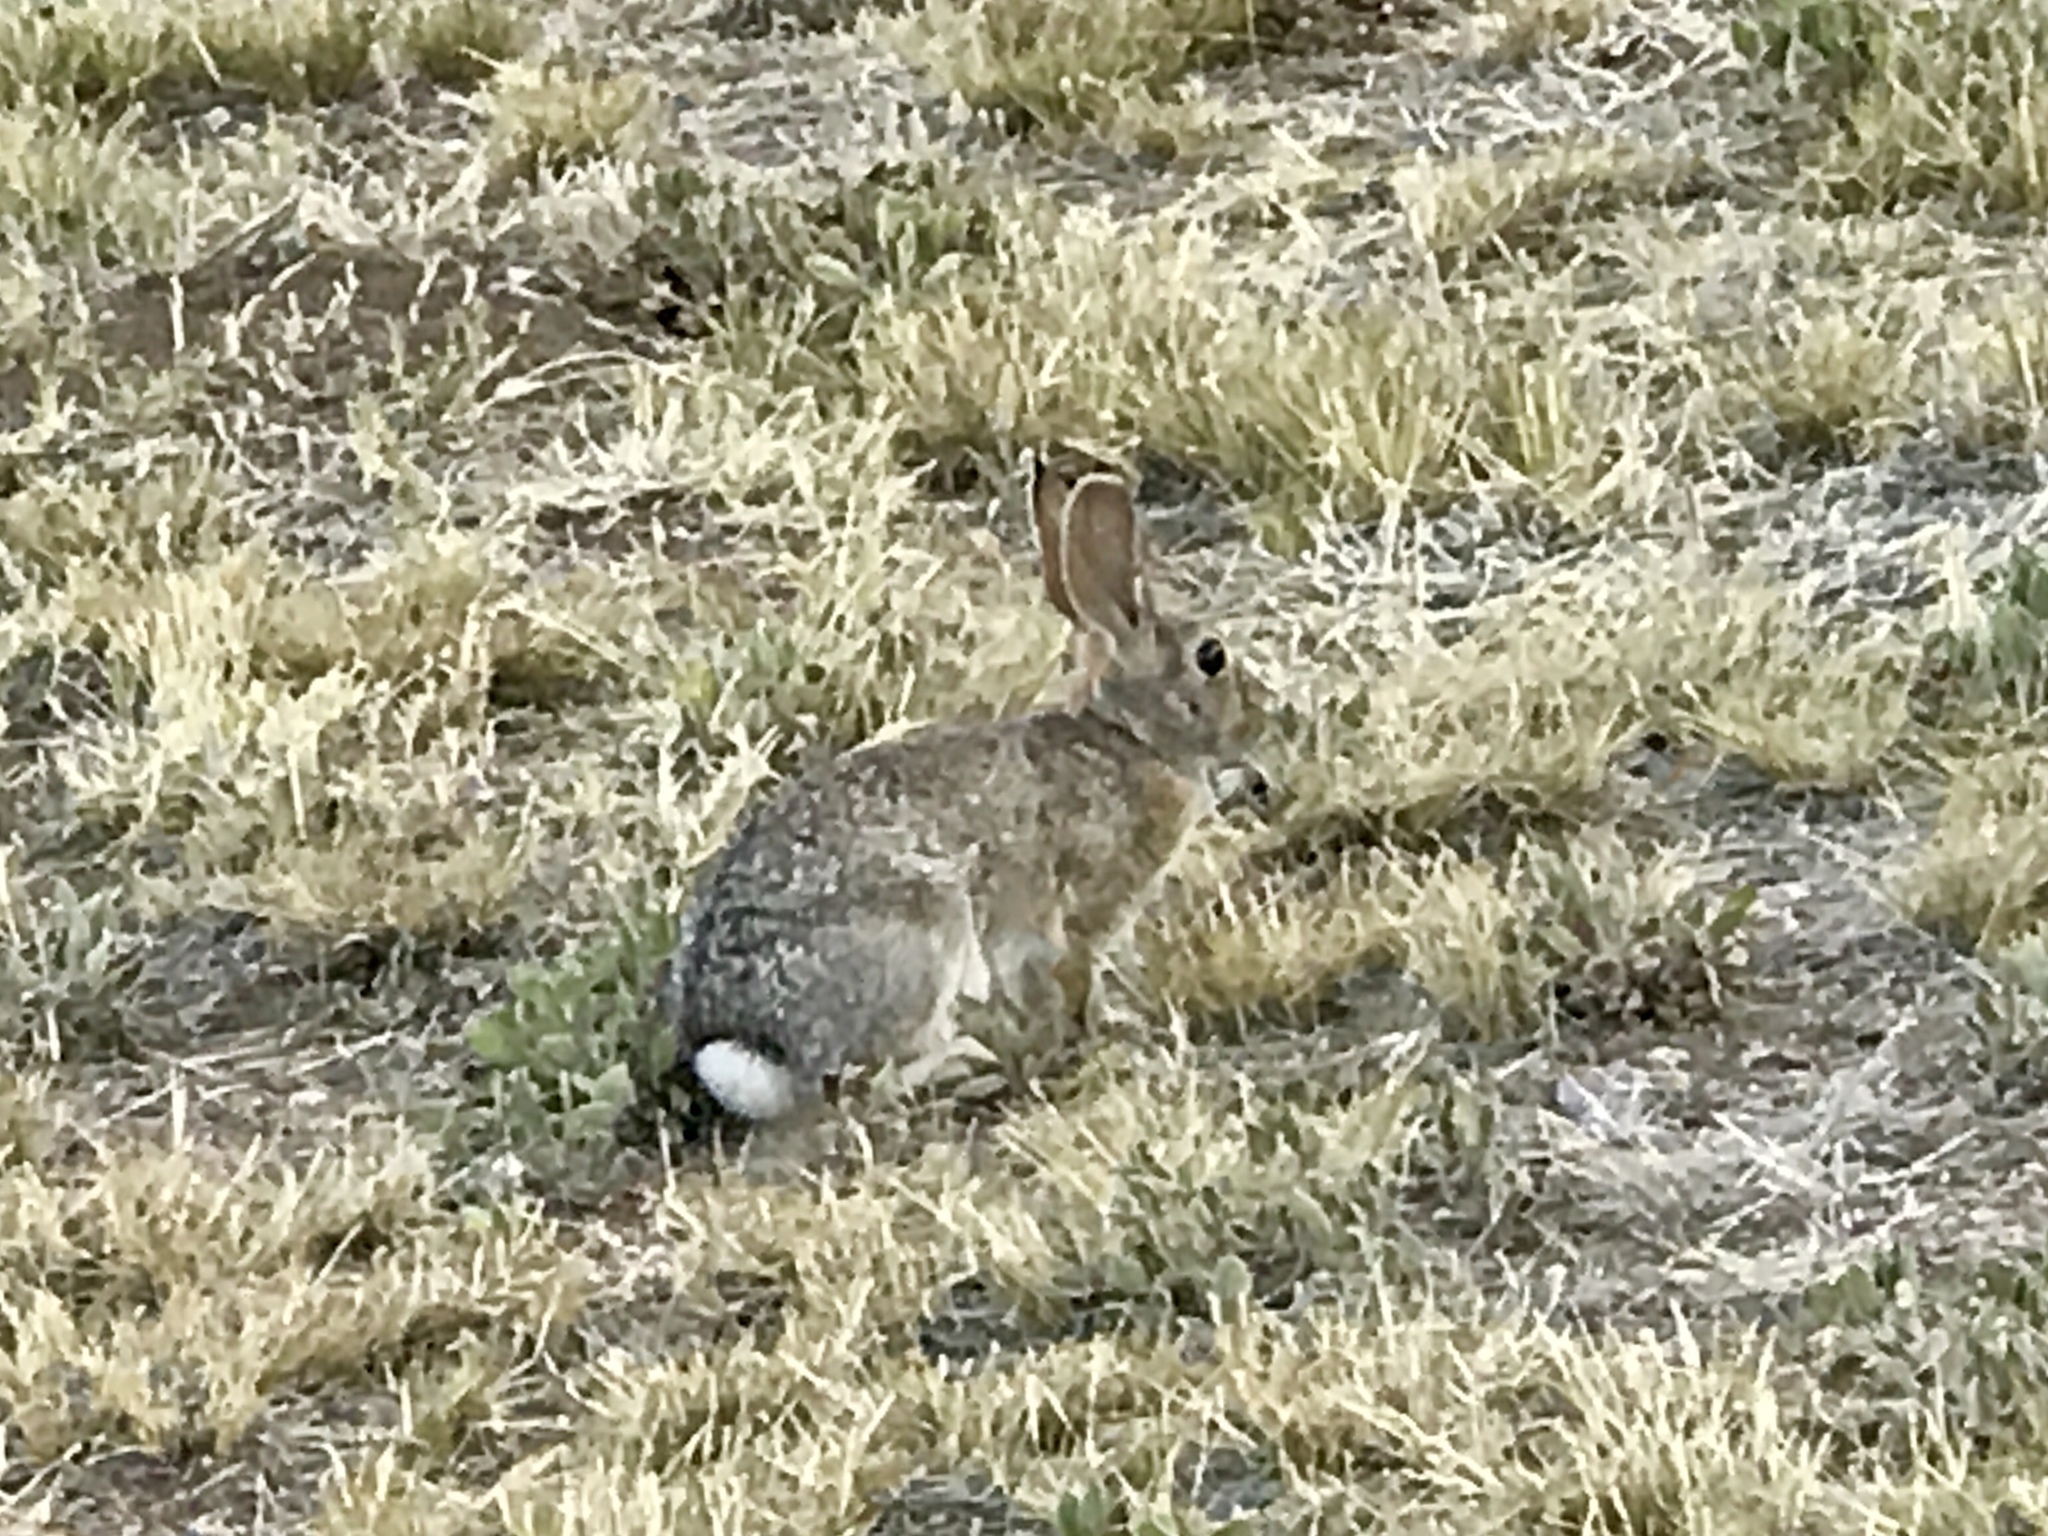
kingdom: Animalia
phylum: Chordata
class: Mammalia
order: Lagomorpha
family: Leporidae
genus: Sylvilagus
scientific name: Sylvilagus audubonii
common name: Desert cottontail
